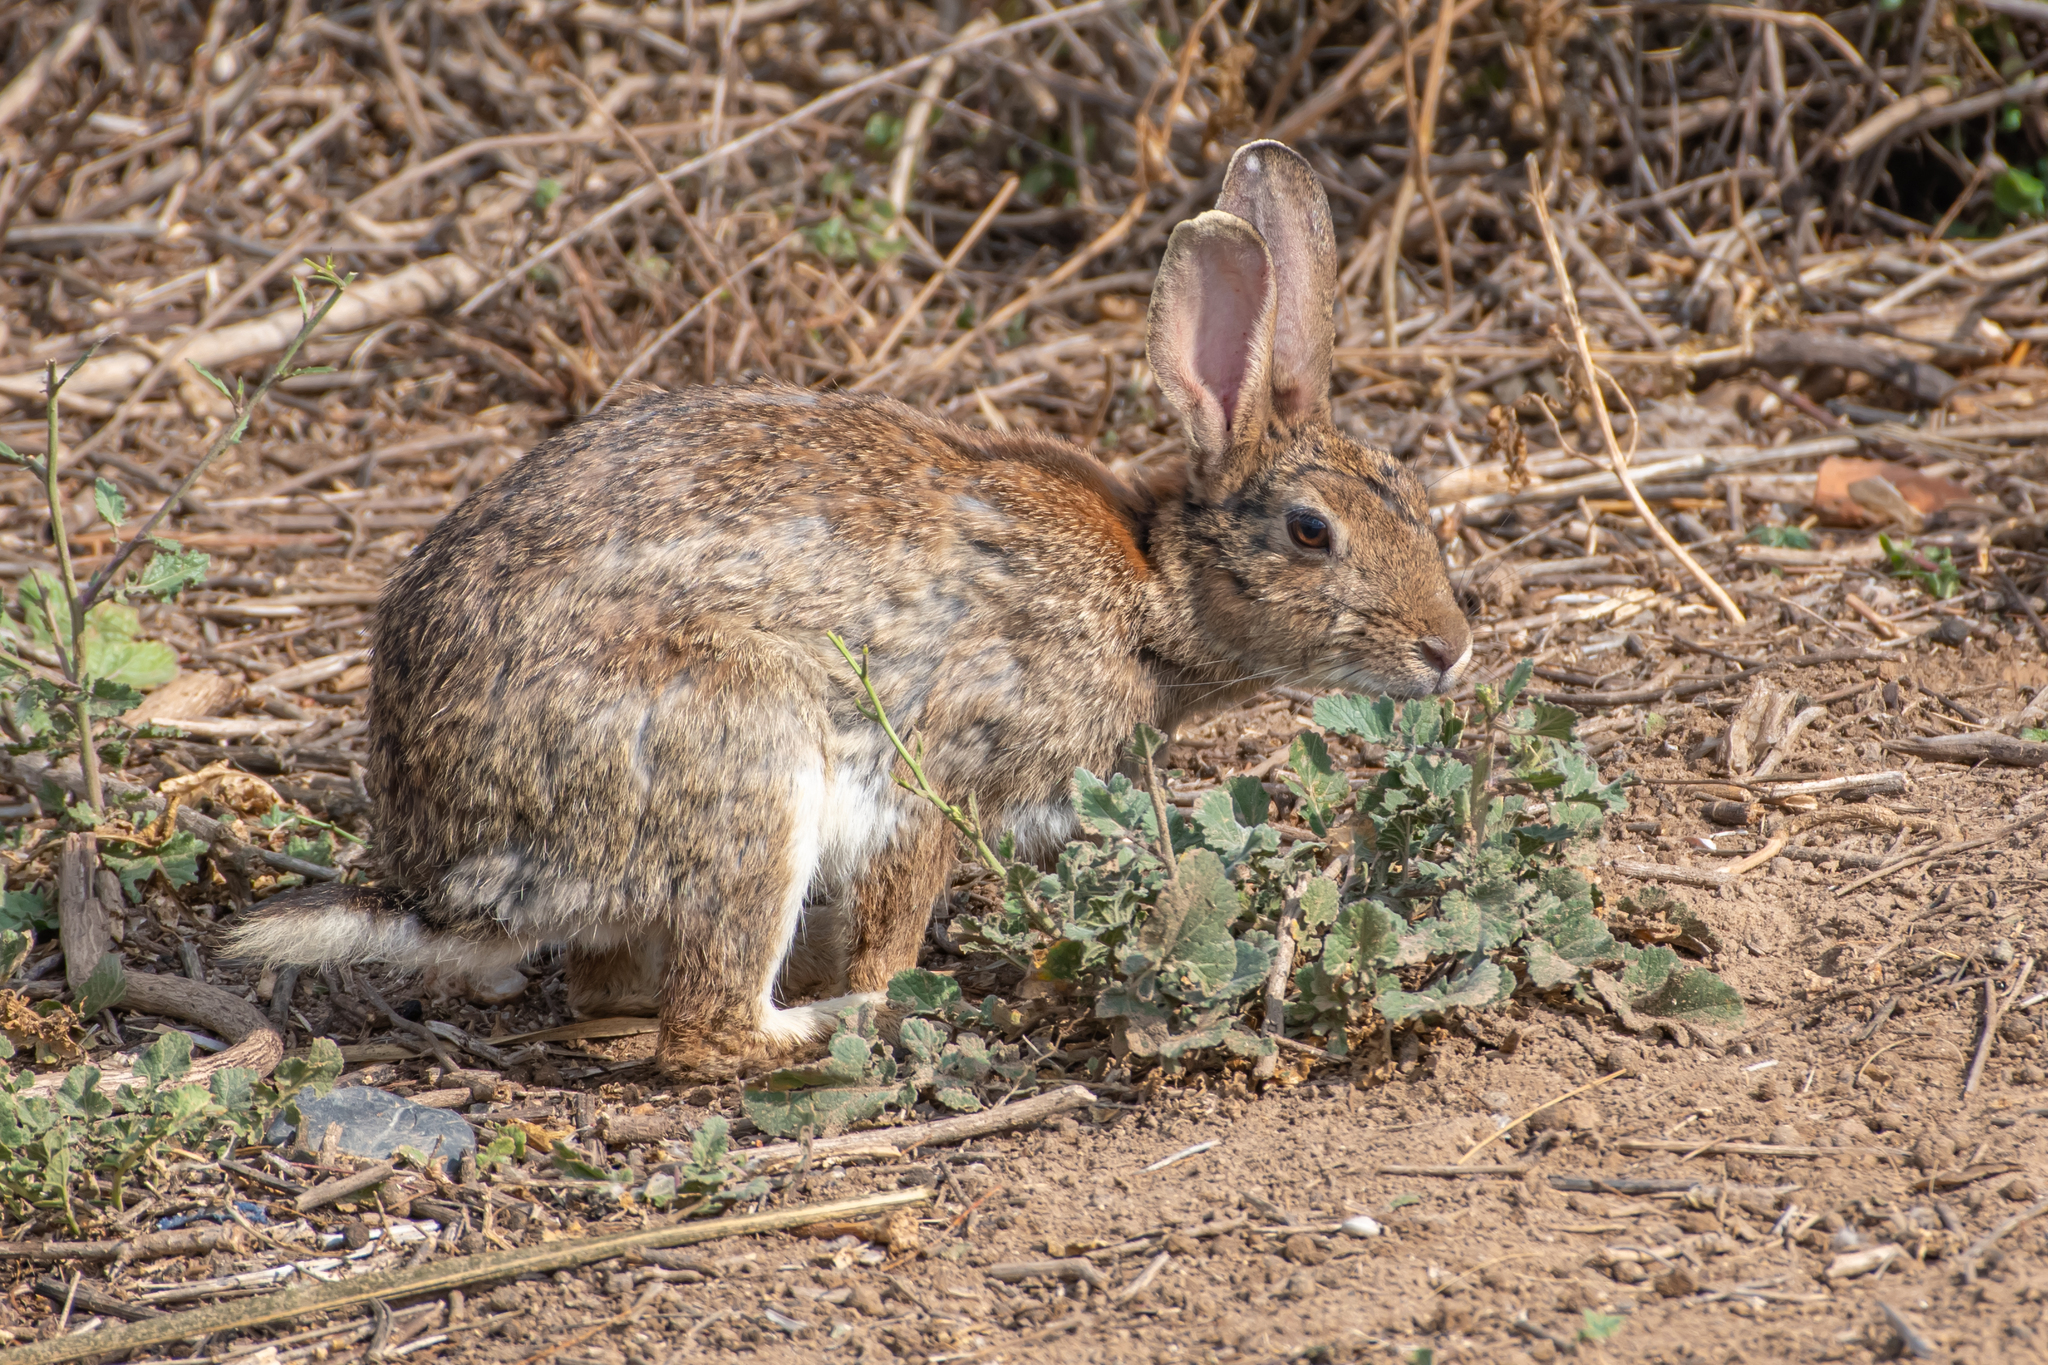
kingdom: Animalia
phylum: Chordata
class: Mammalia
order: Lagomorpha
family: Leporidae
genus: Oryctolagus
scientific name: Oryctolagus cuniculus
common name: European rabbit
